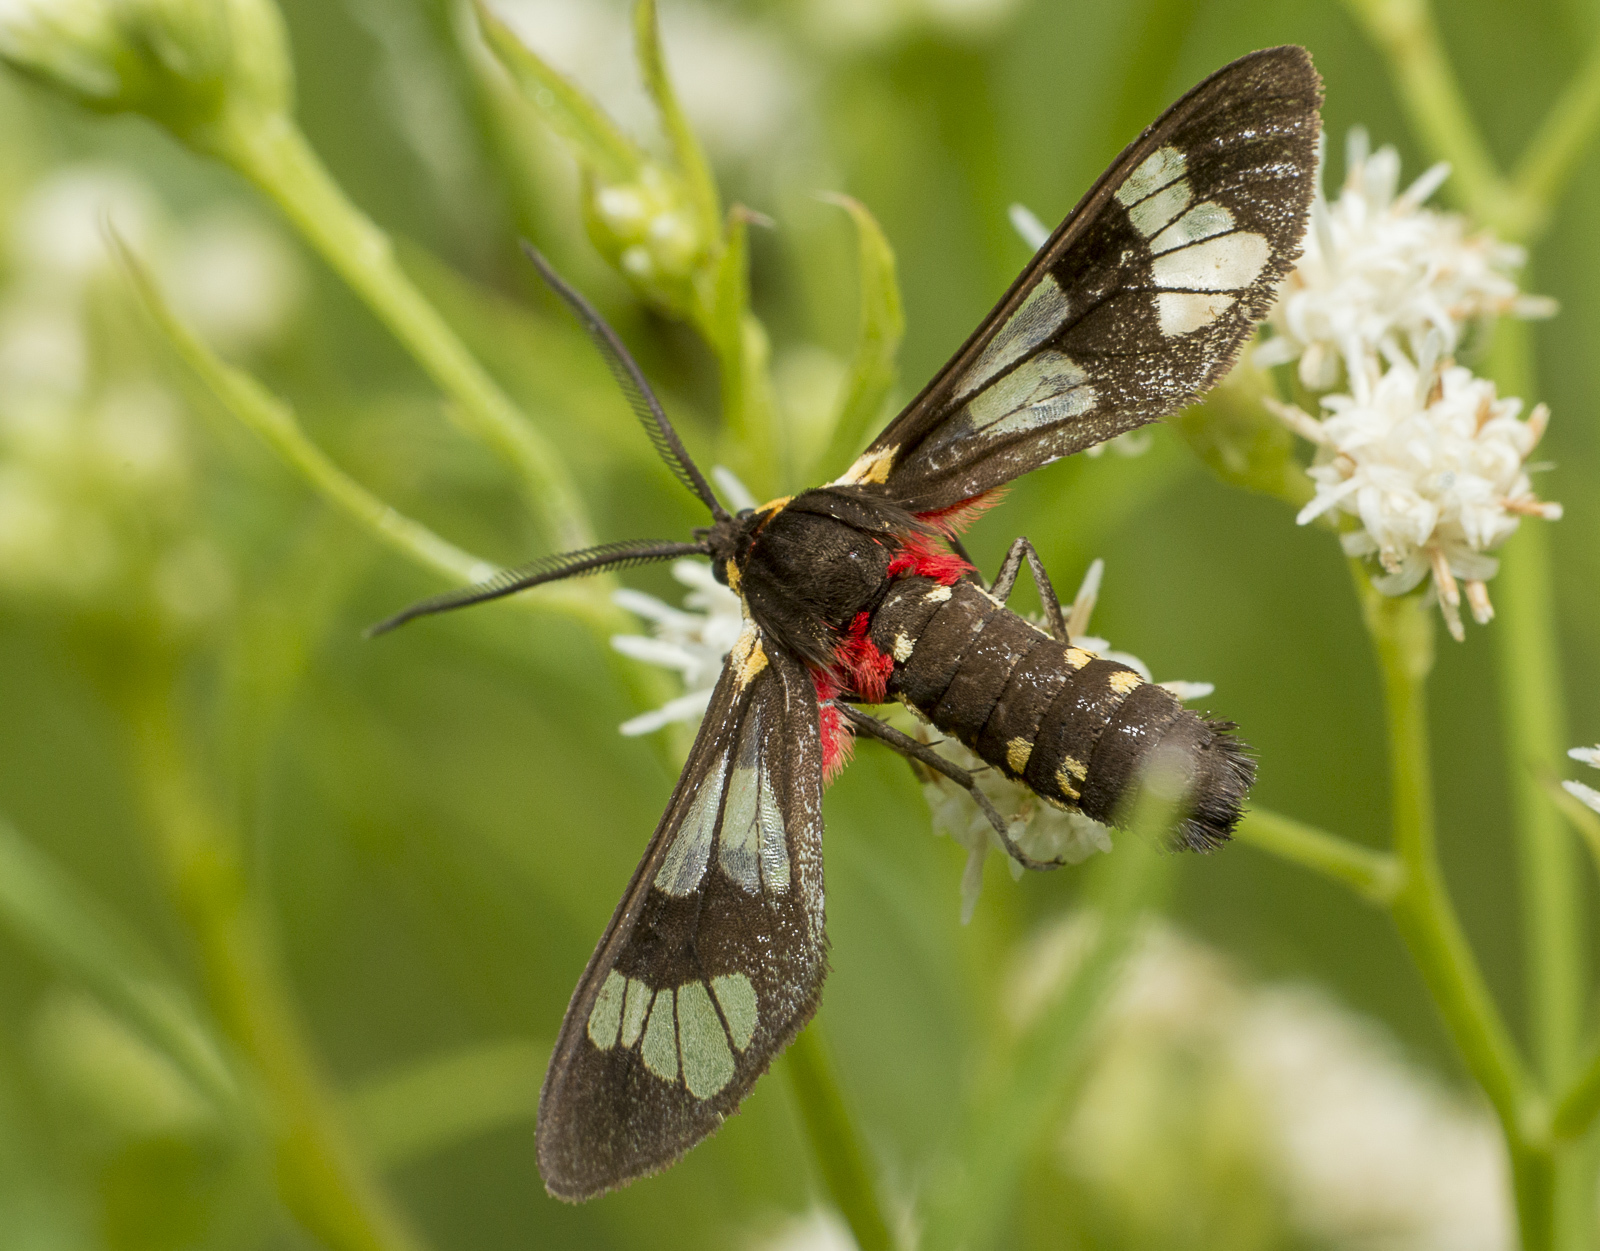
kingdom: Animalia
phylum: Arthropoda
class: Insecta
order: Lepidoptera
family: Erebidae
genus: Eurata
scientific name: Eurata hermione
